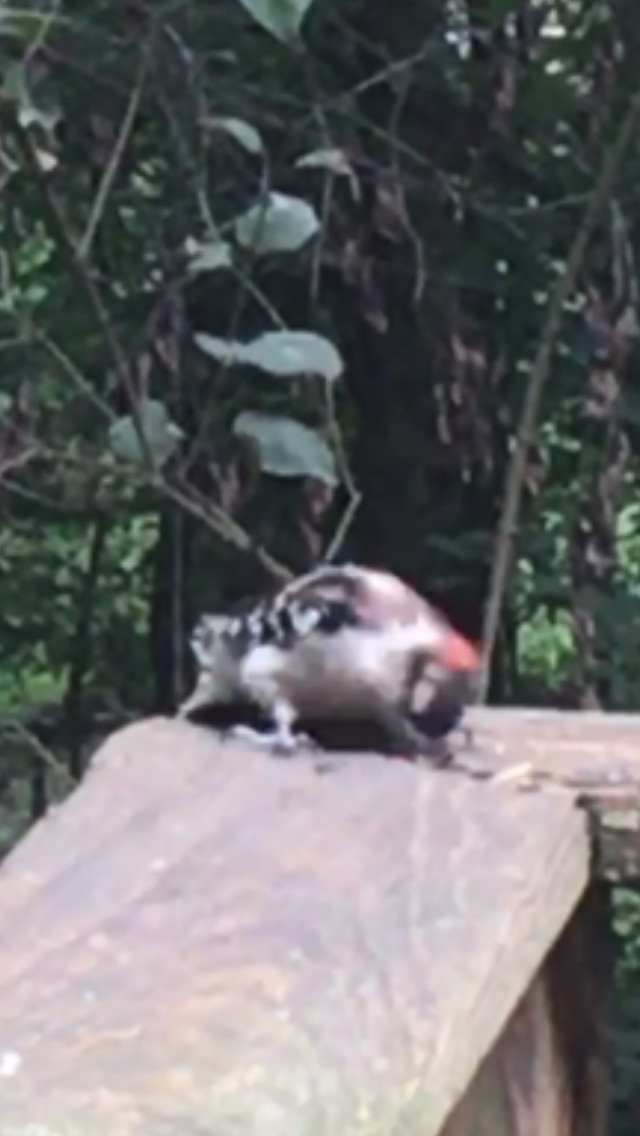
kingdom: Animalia
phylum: Chordata
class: Aves
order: Piciformes
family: Picidae
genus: Dryobates
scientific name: Dryobates pubescens
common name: Downy woodpecker
